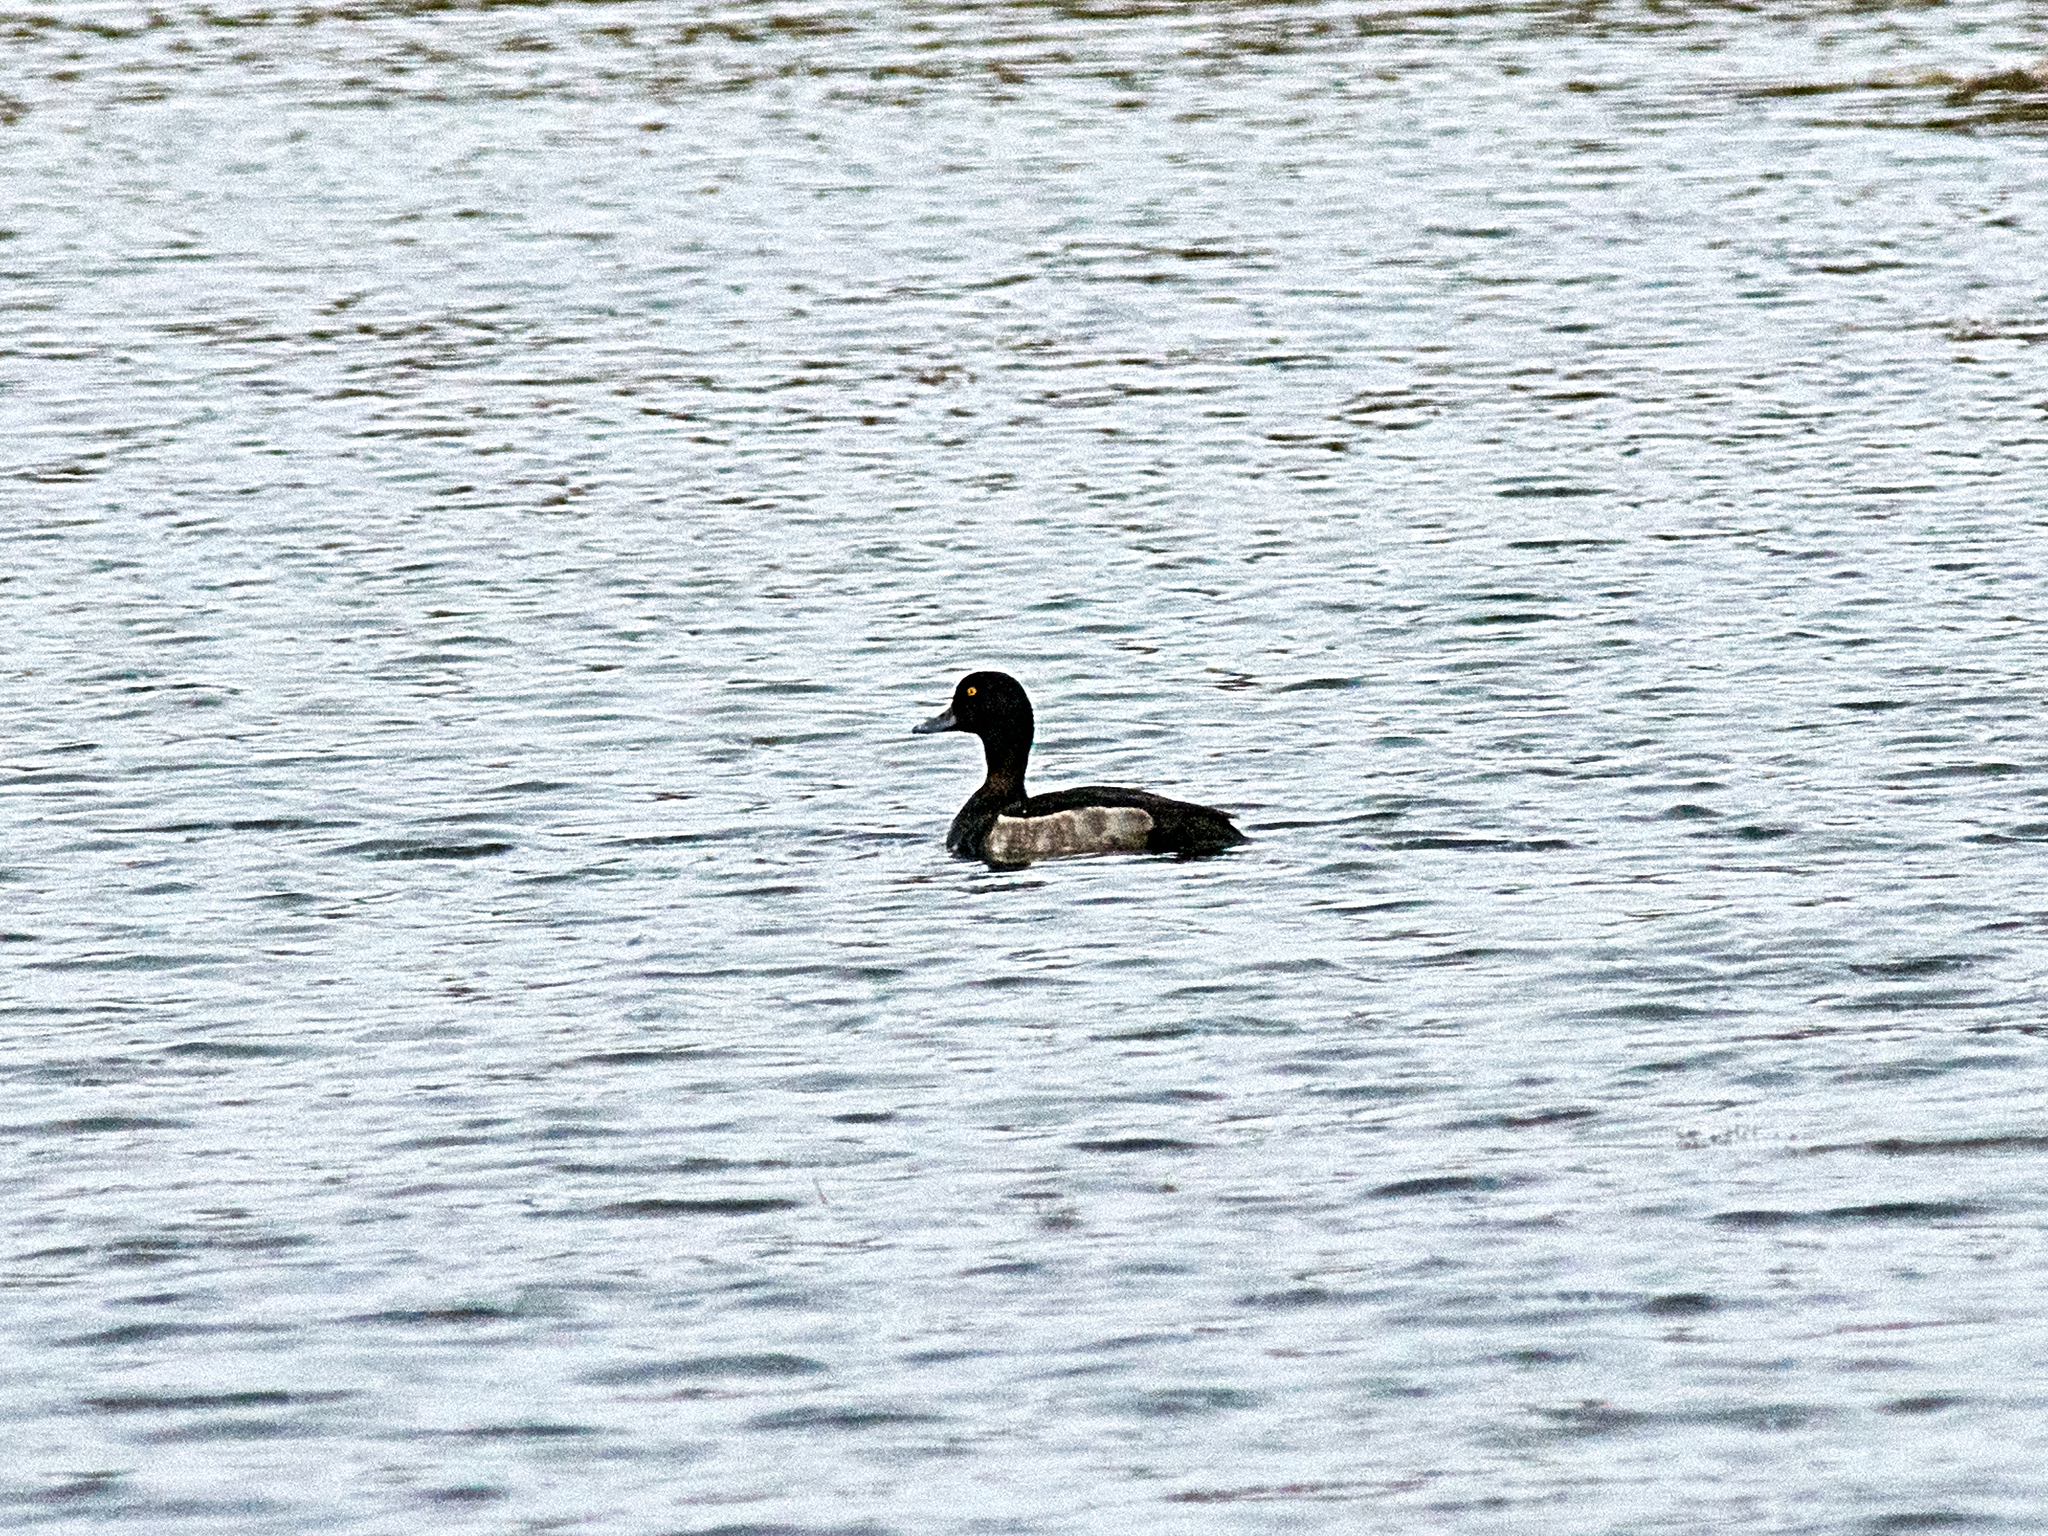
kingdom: Animalia
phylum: Chordata
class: Aves
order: Anseriformes
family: Anatidae
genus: Aythya
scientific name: Aythya fuligula
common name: Tufted duck
